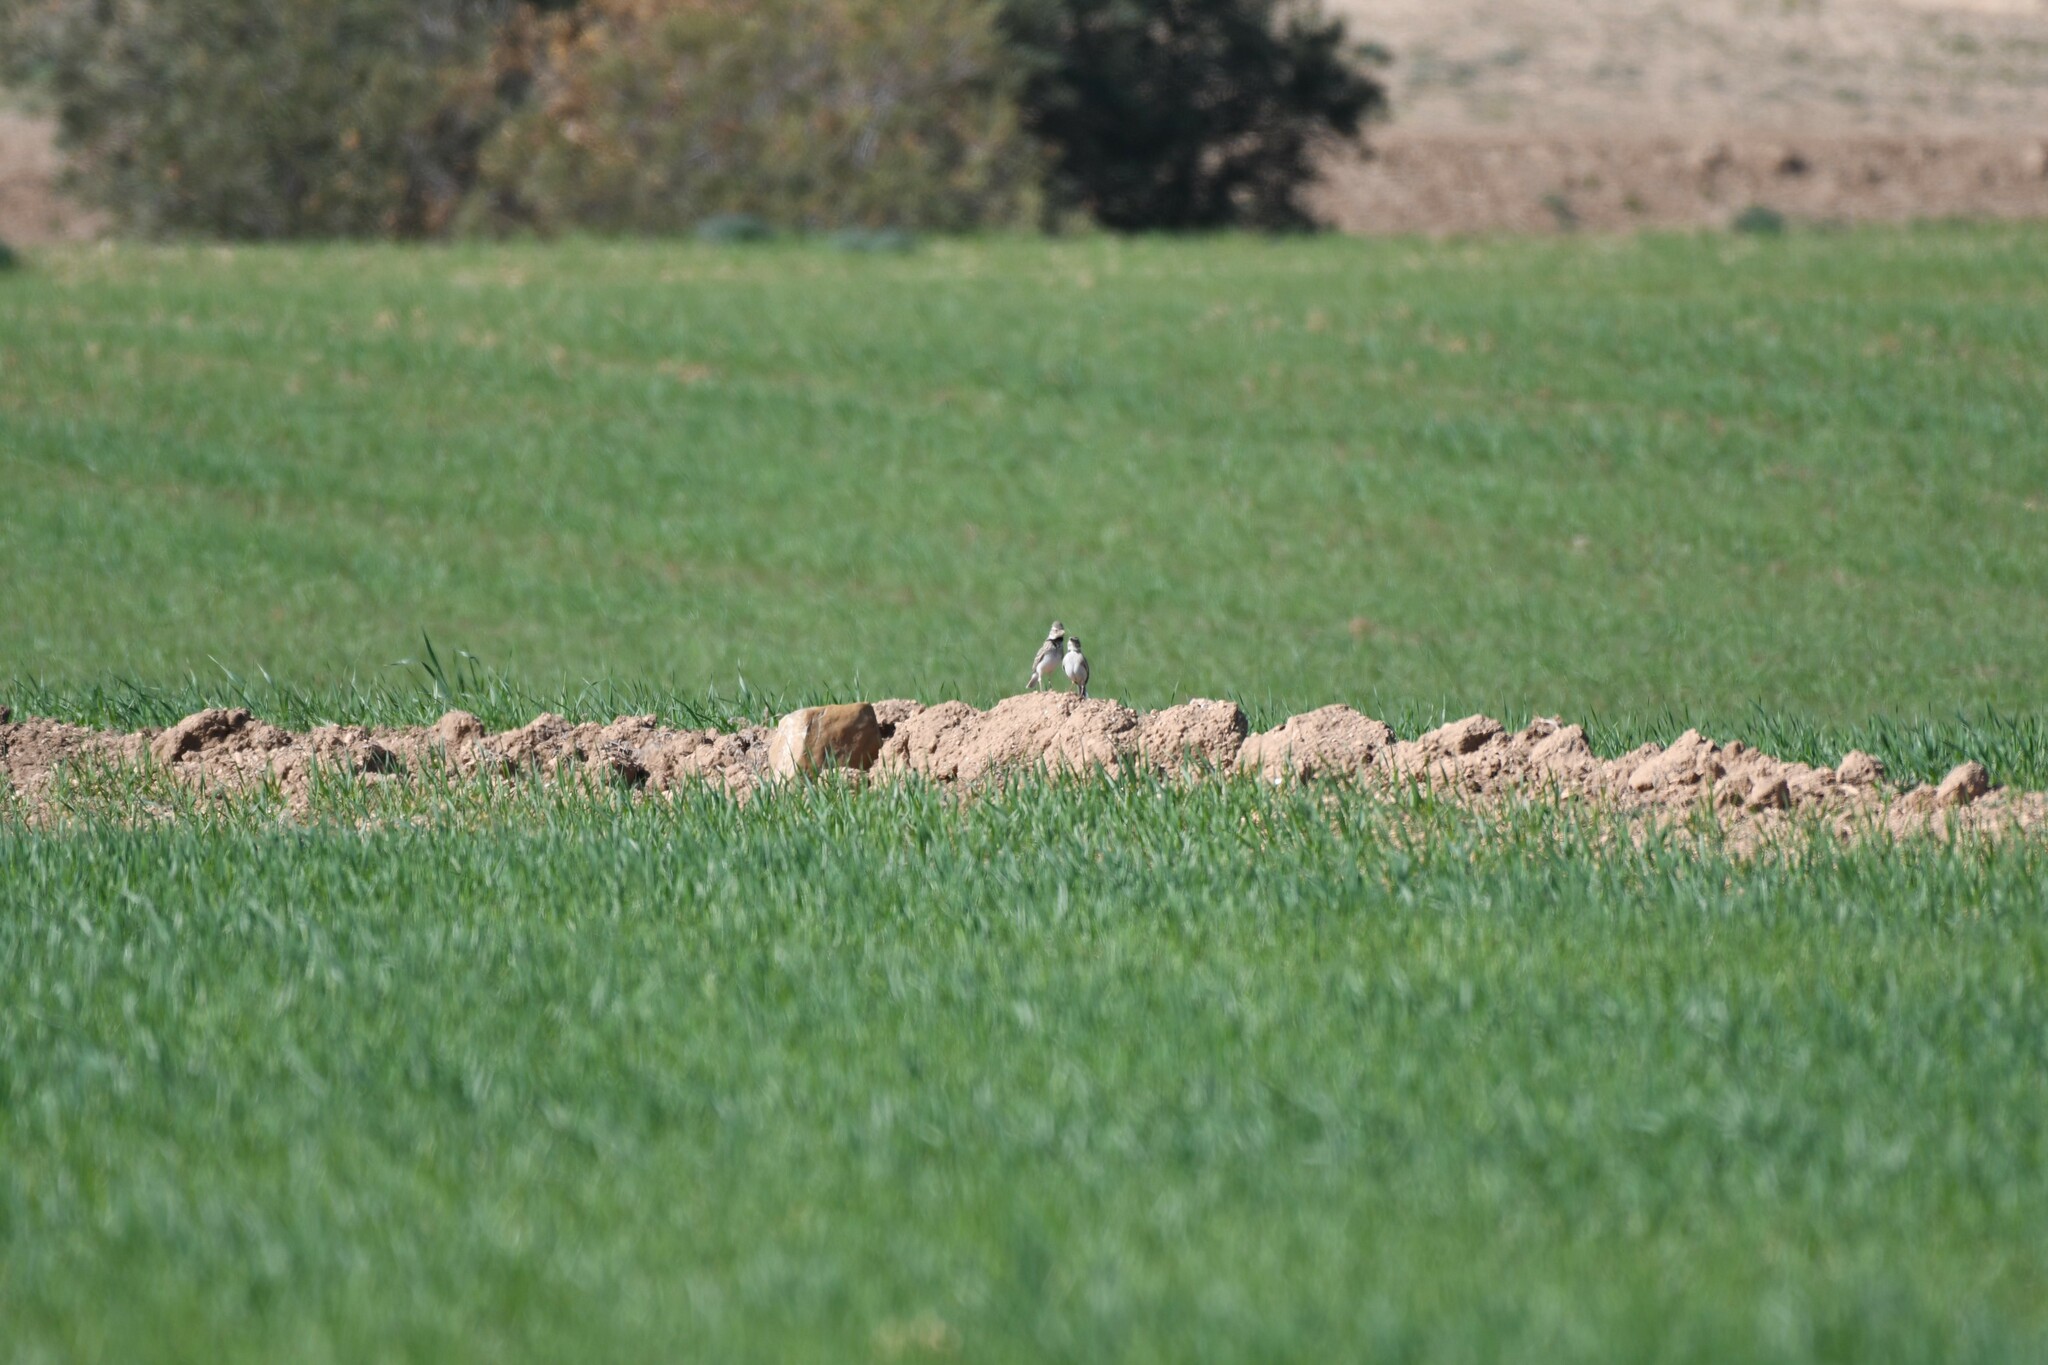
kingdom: Animalia
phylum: Chordata
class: Aves
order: Passeriformes
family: Alaudidae
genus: Melanocorypha
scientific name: Melanocorypha calandra
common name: Calandra lark
